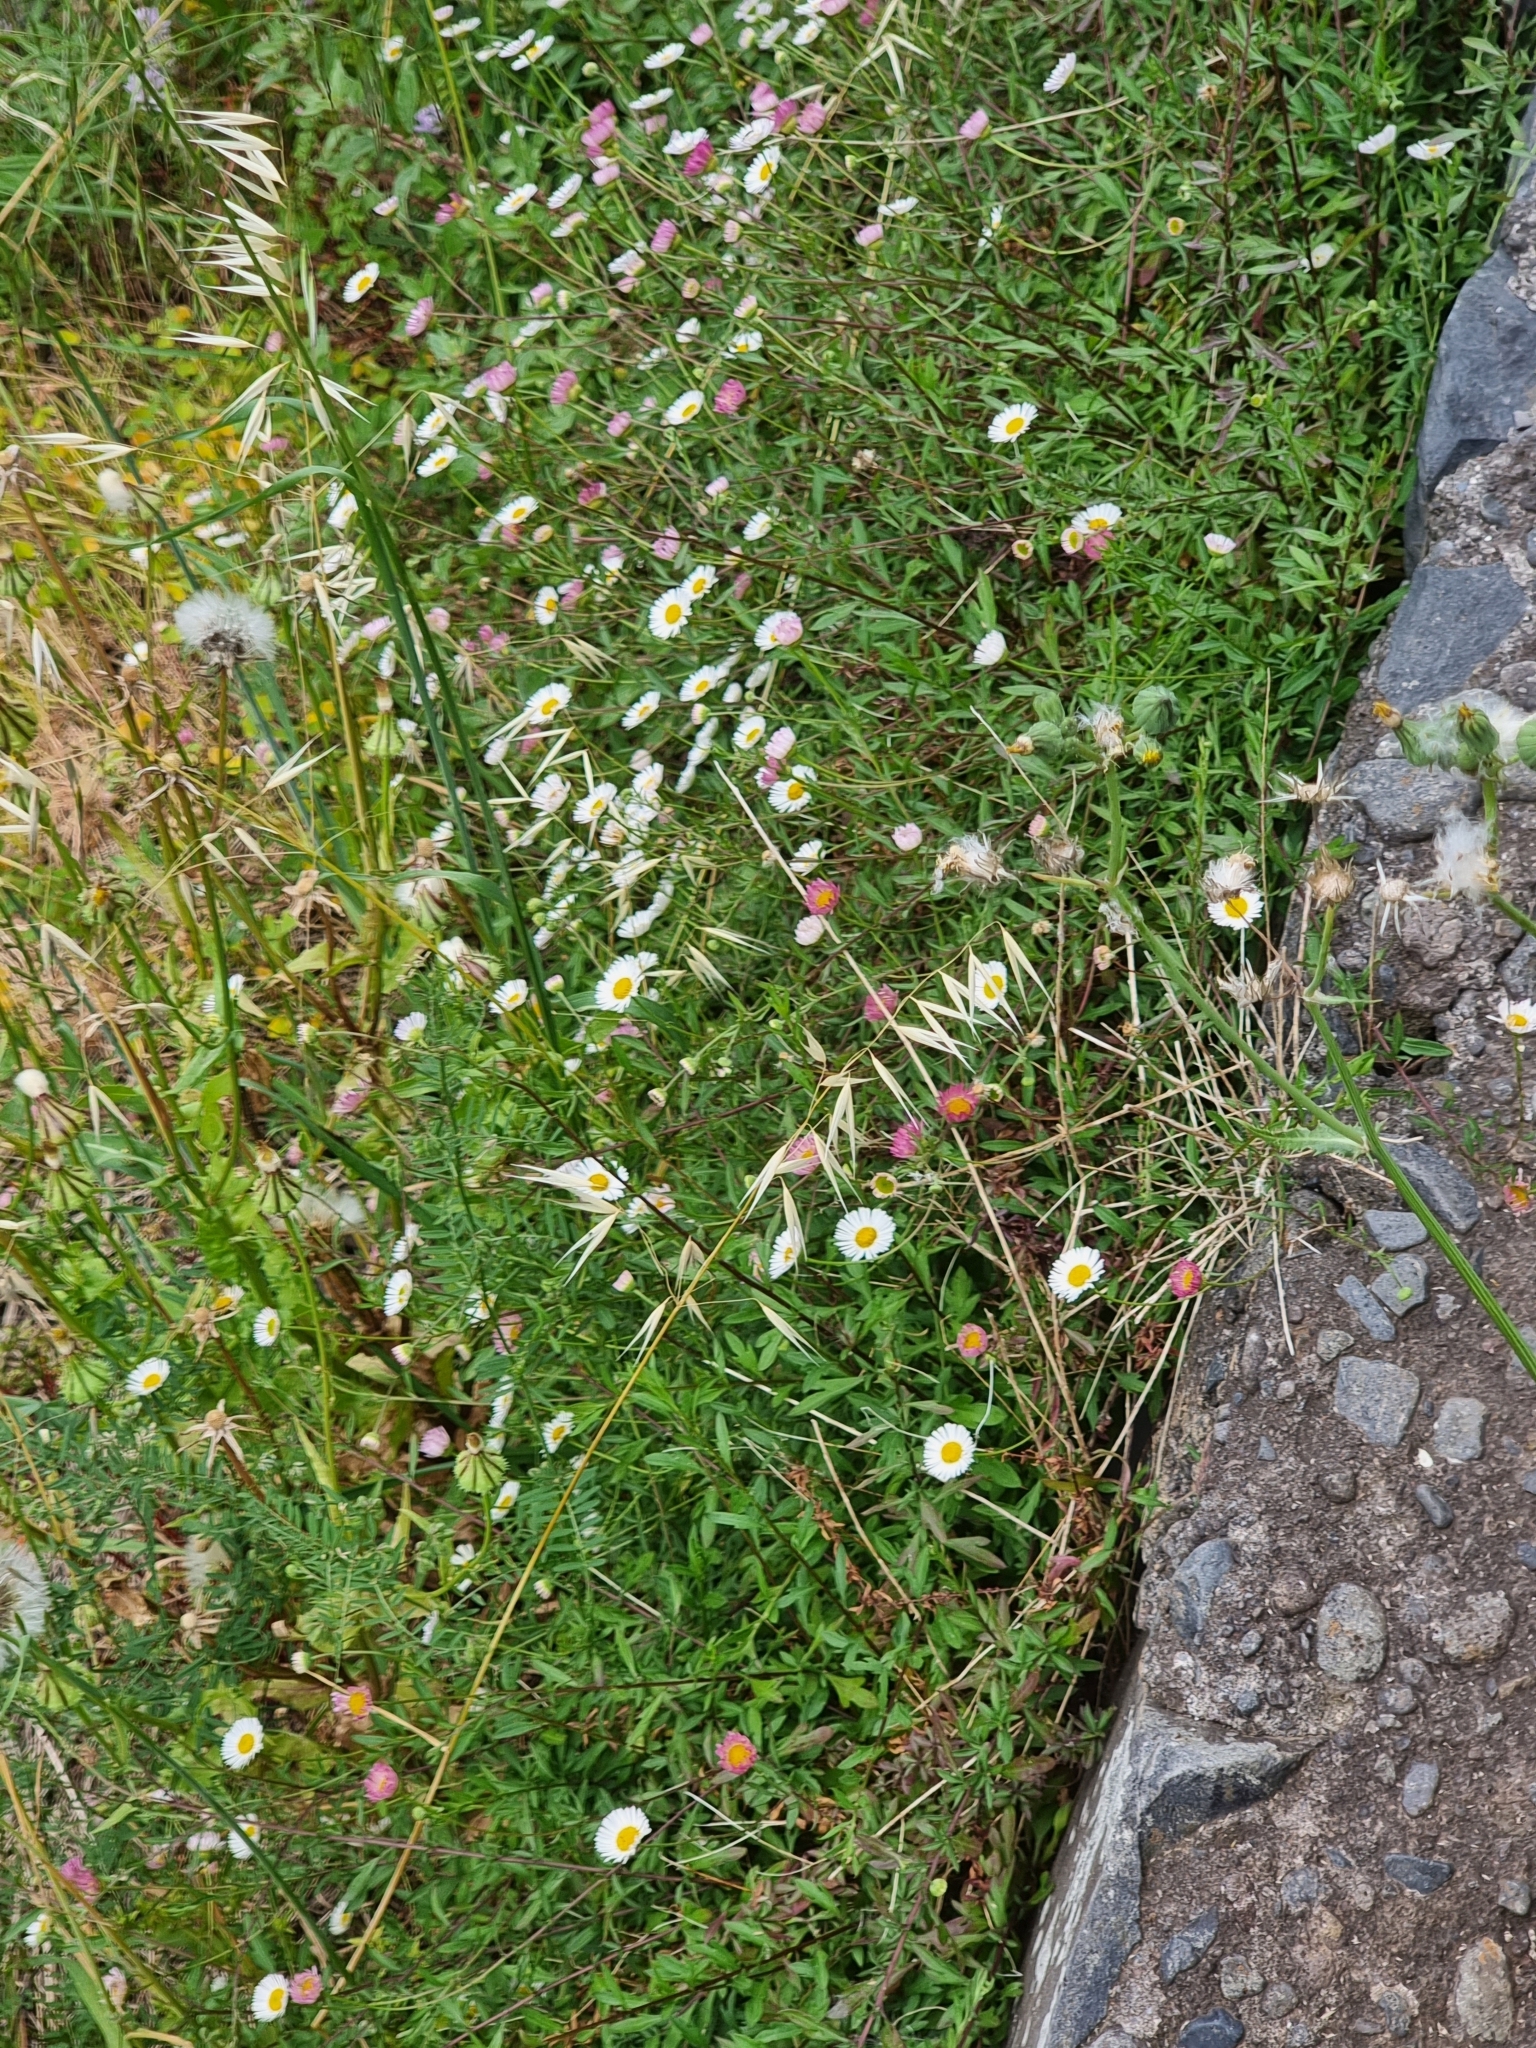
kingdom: Plantae
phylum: Tracheophyta
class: Magnoliopsida
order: Asterales
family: Asteraceae
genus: Erigeron
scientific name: Erigeron karvinskianus
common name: Mexican fleabane
